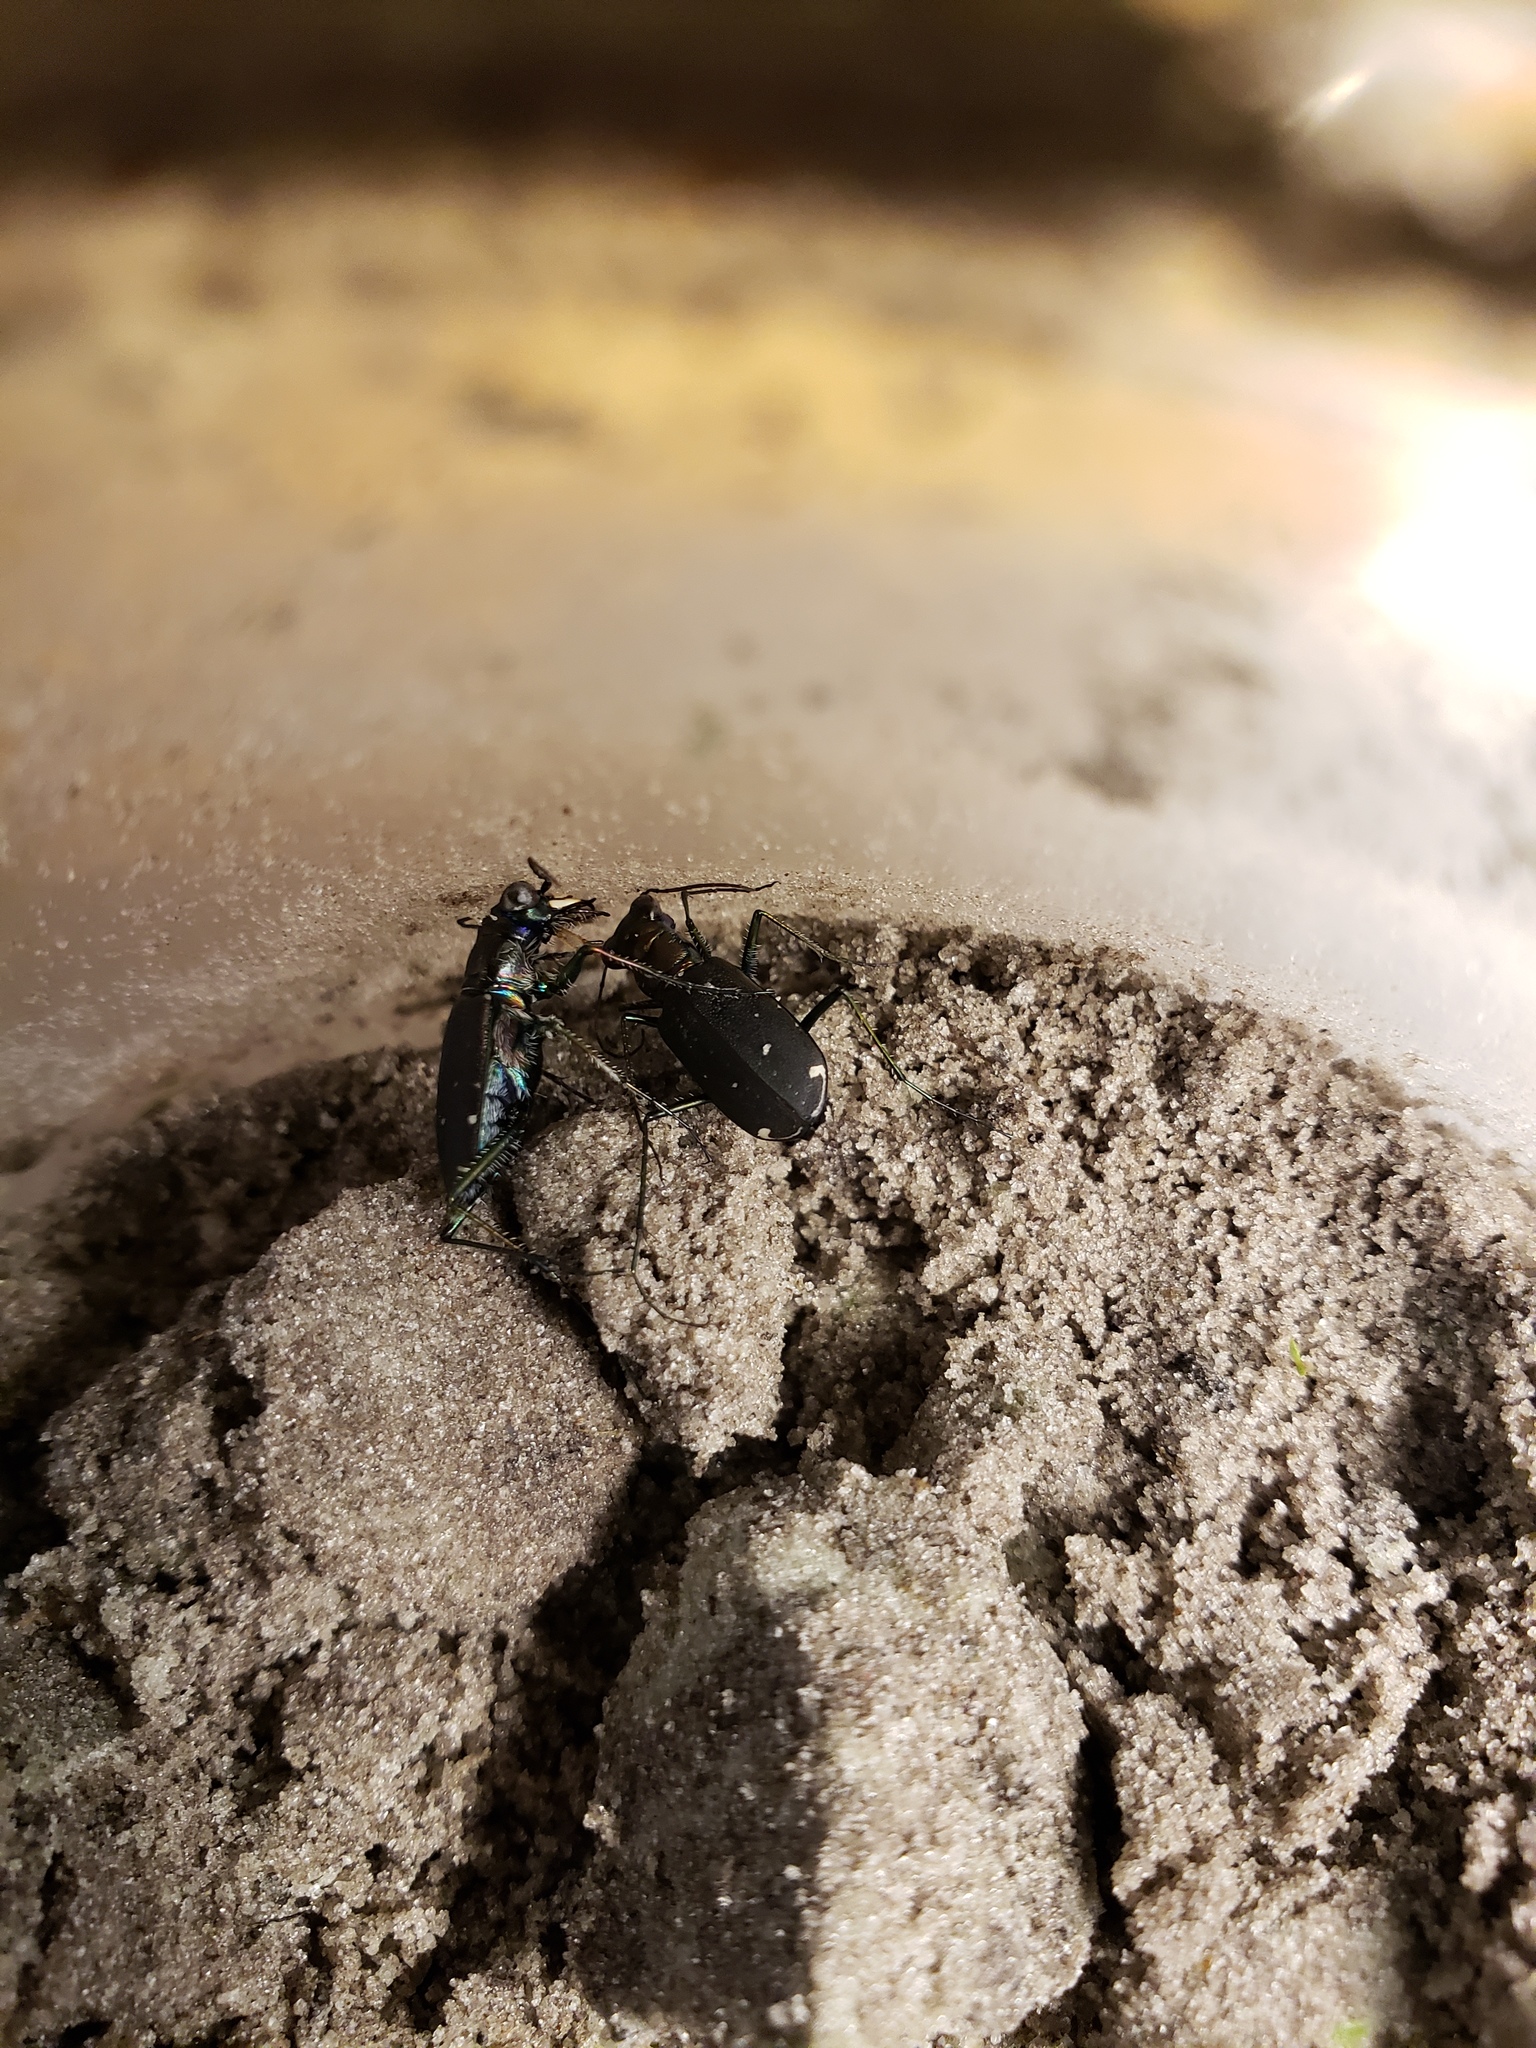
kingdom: Animalia
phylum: Arthropoda
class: Insecta
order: Coleoptera
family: Carabidae
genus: Cicindela
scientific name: Cicindela punctulata
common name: Punctured tiger beetle
